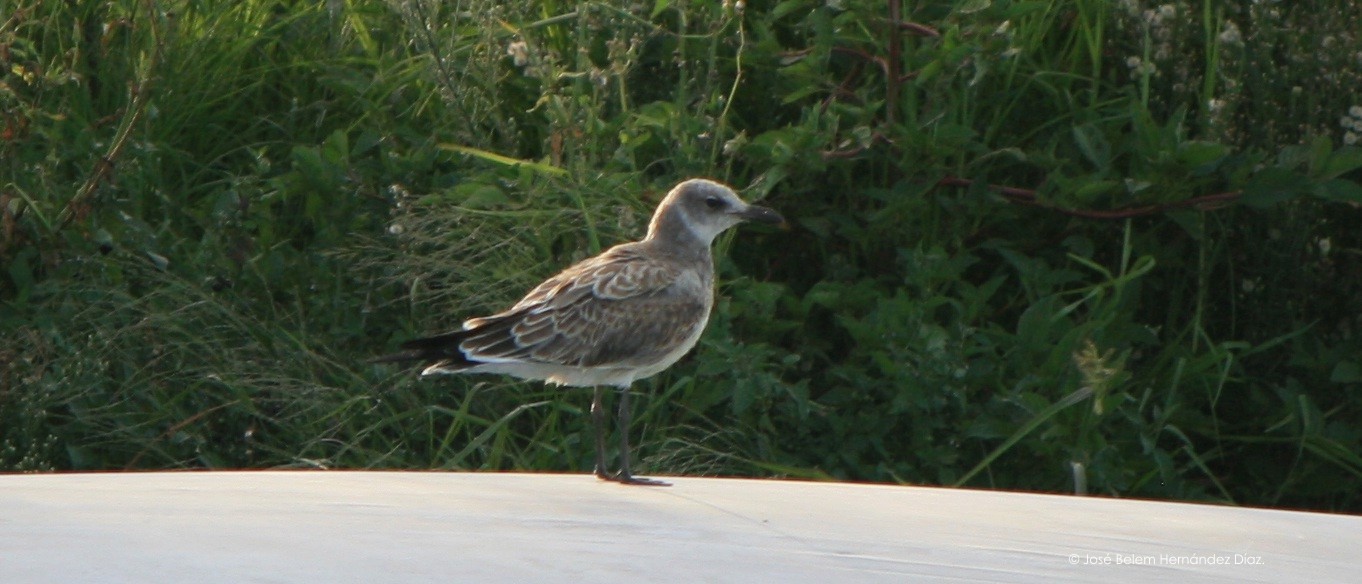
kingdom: Animalia
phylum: Chordata
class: Aves
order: Charadriiformes
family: Laridae
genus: Leucophaeus
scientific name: Leucophaeus atricilla
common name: Laughing gull
